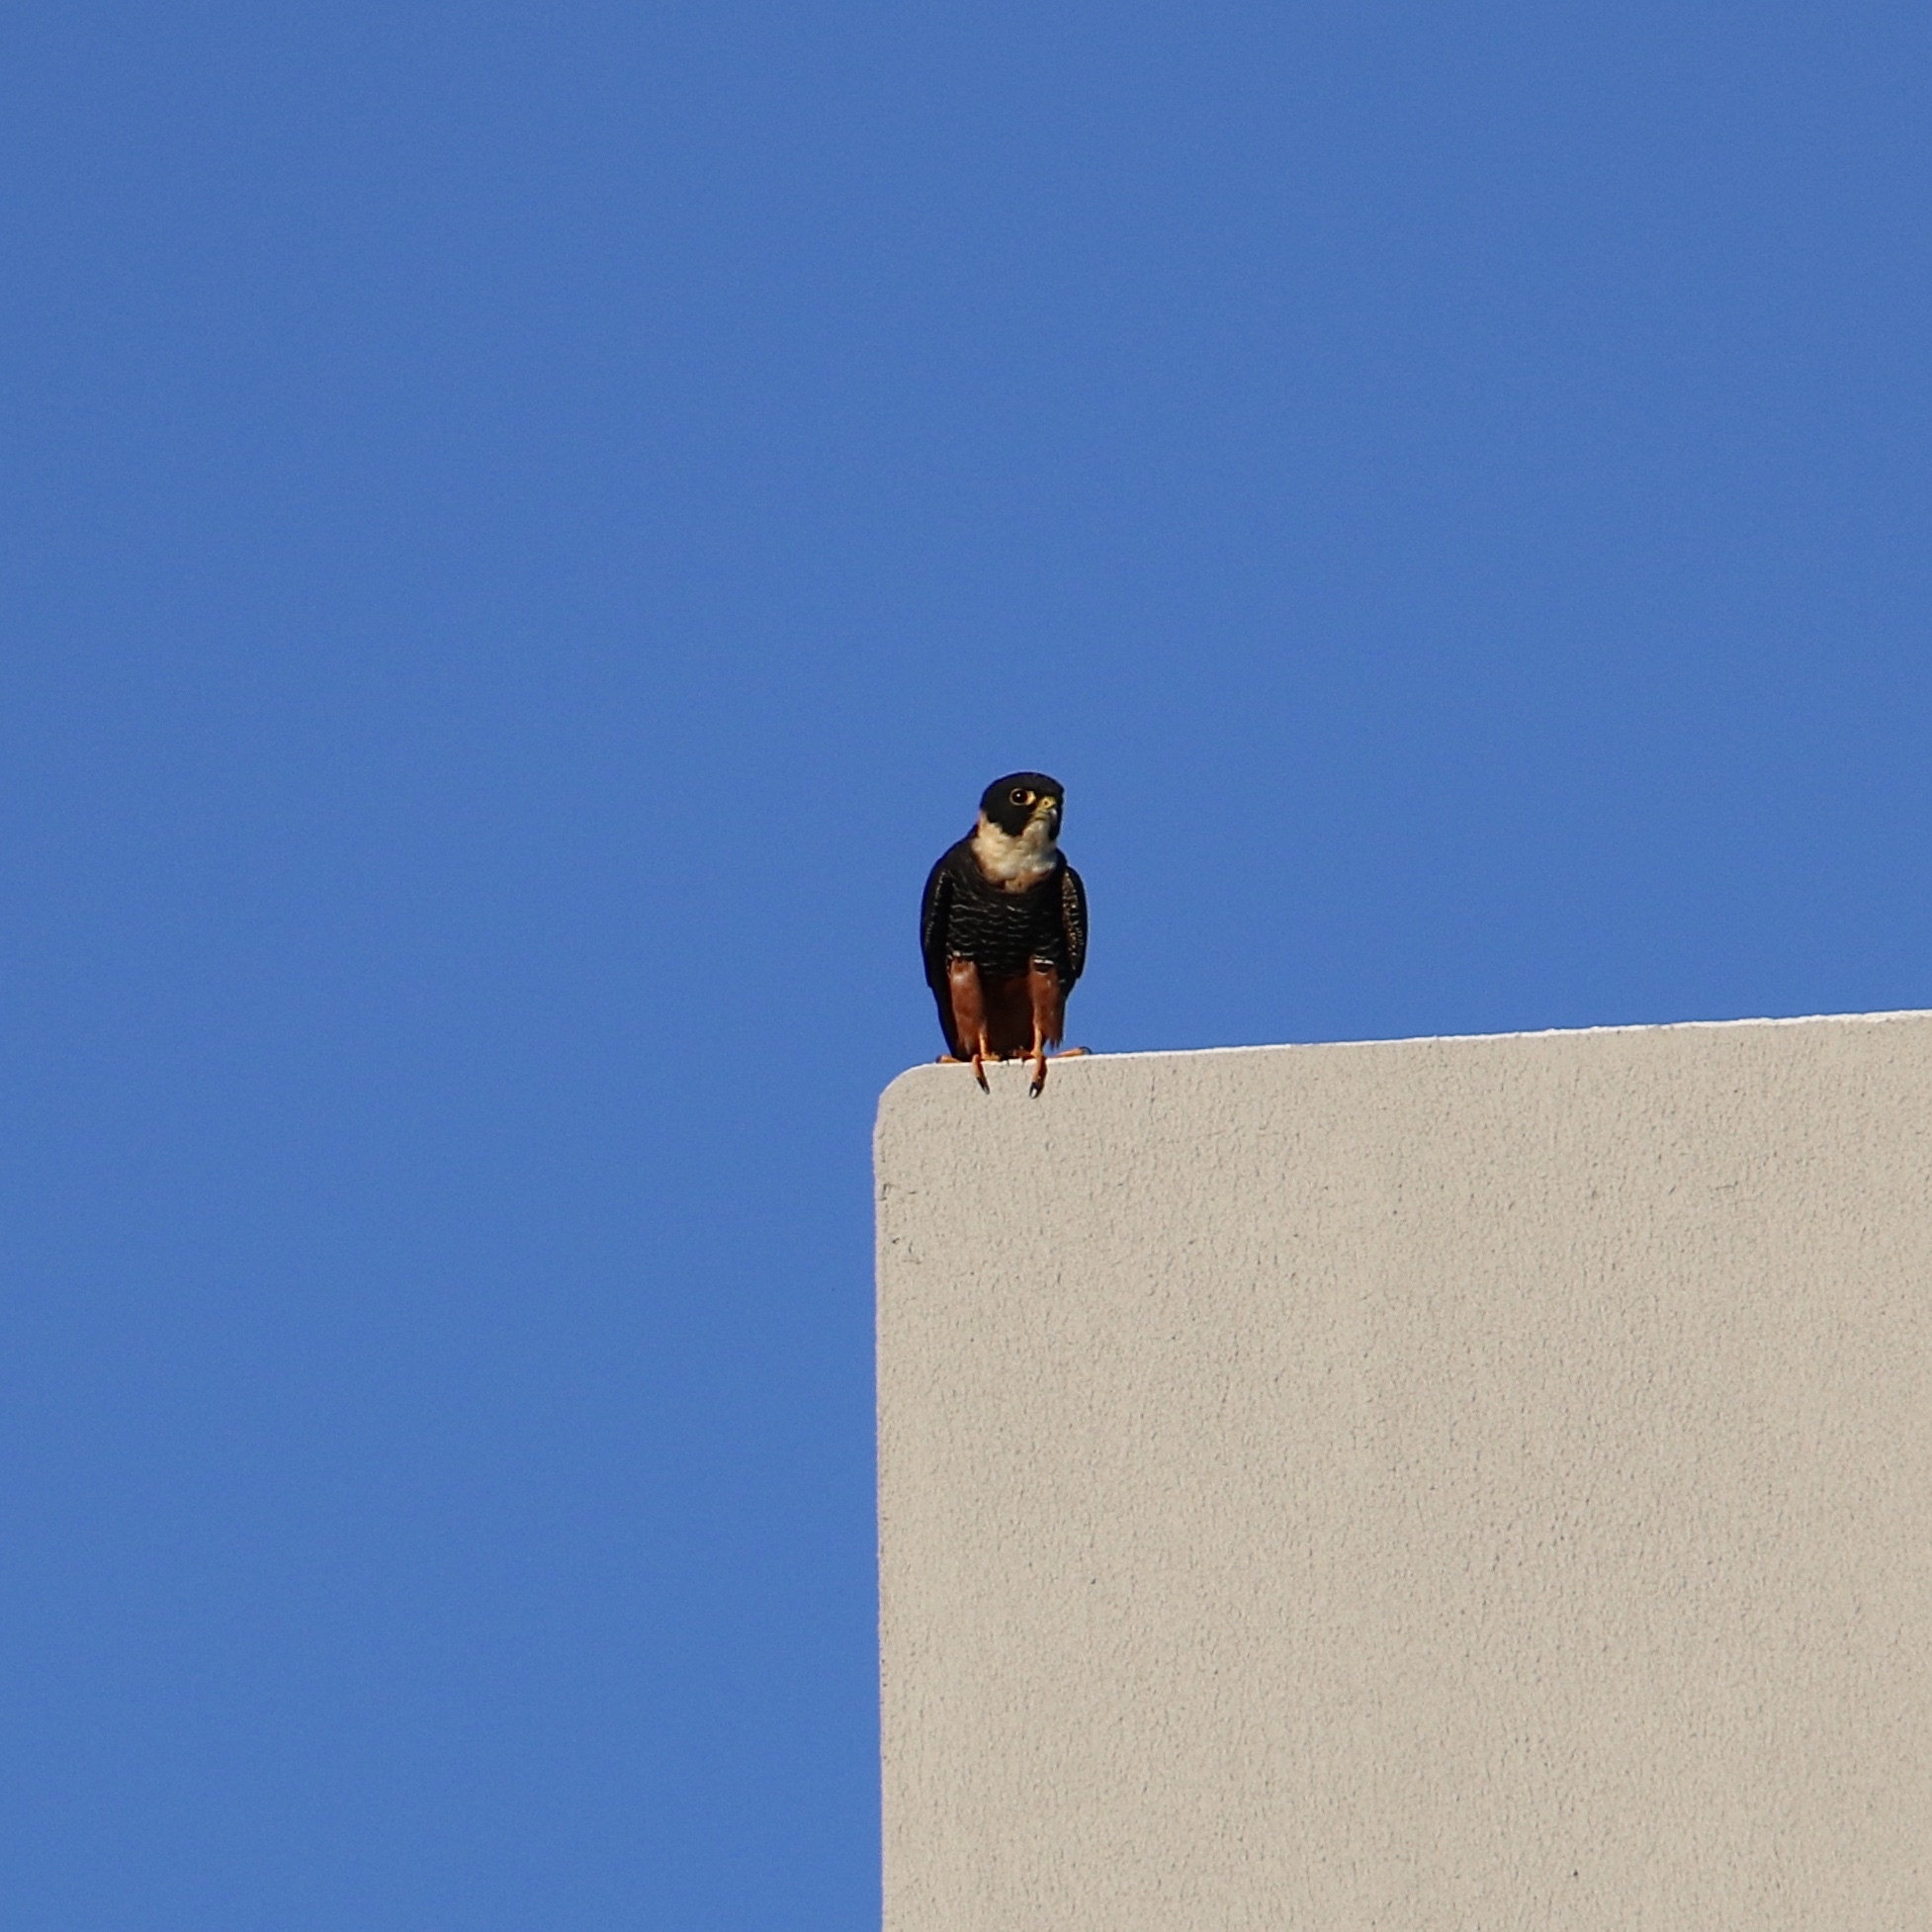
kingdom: Animalia
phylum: Chordata
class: Aves
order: Falconiformes
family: Falconidae
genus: Falco
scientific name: Falco rufigularis
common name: Bat falcon
